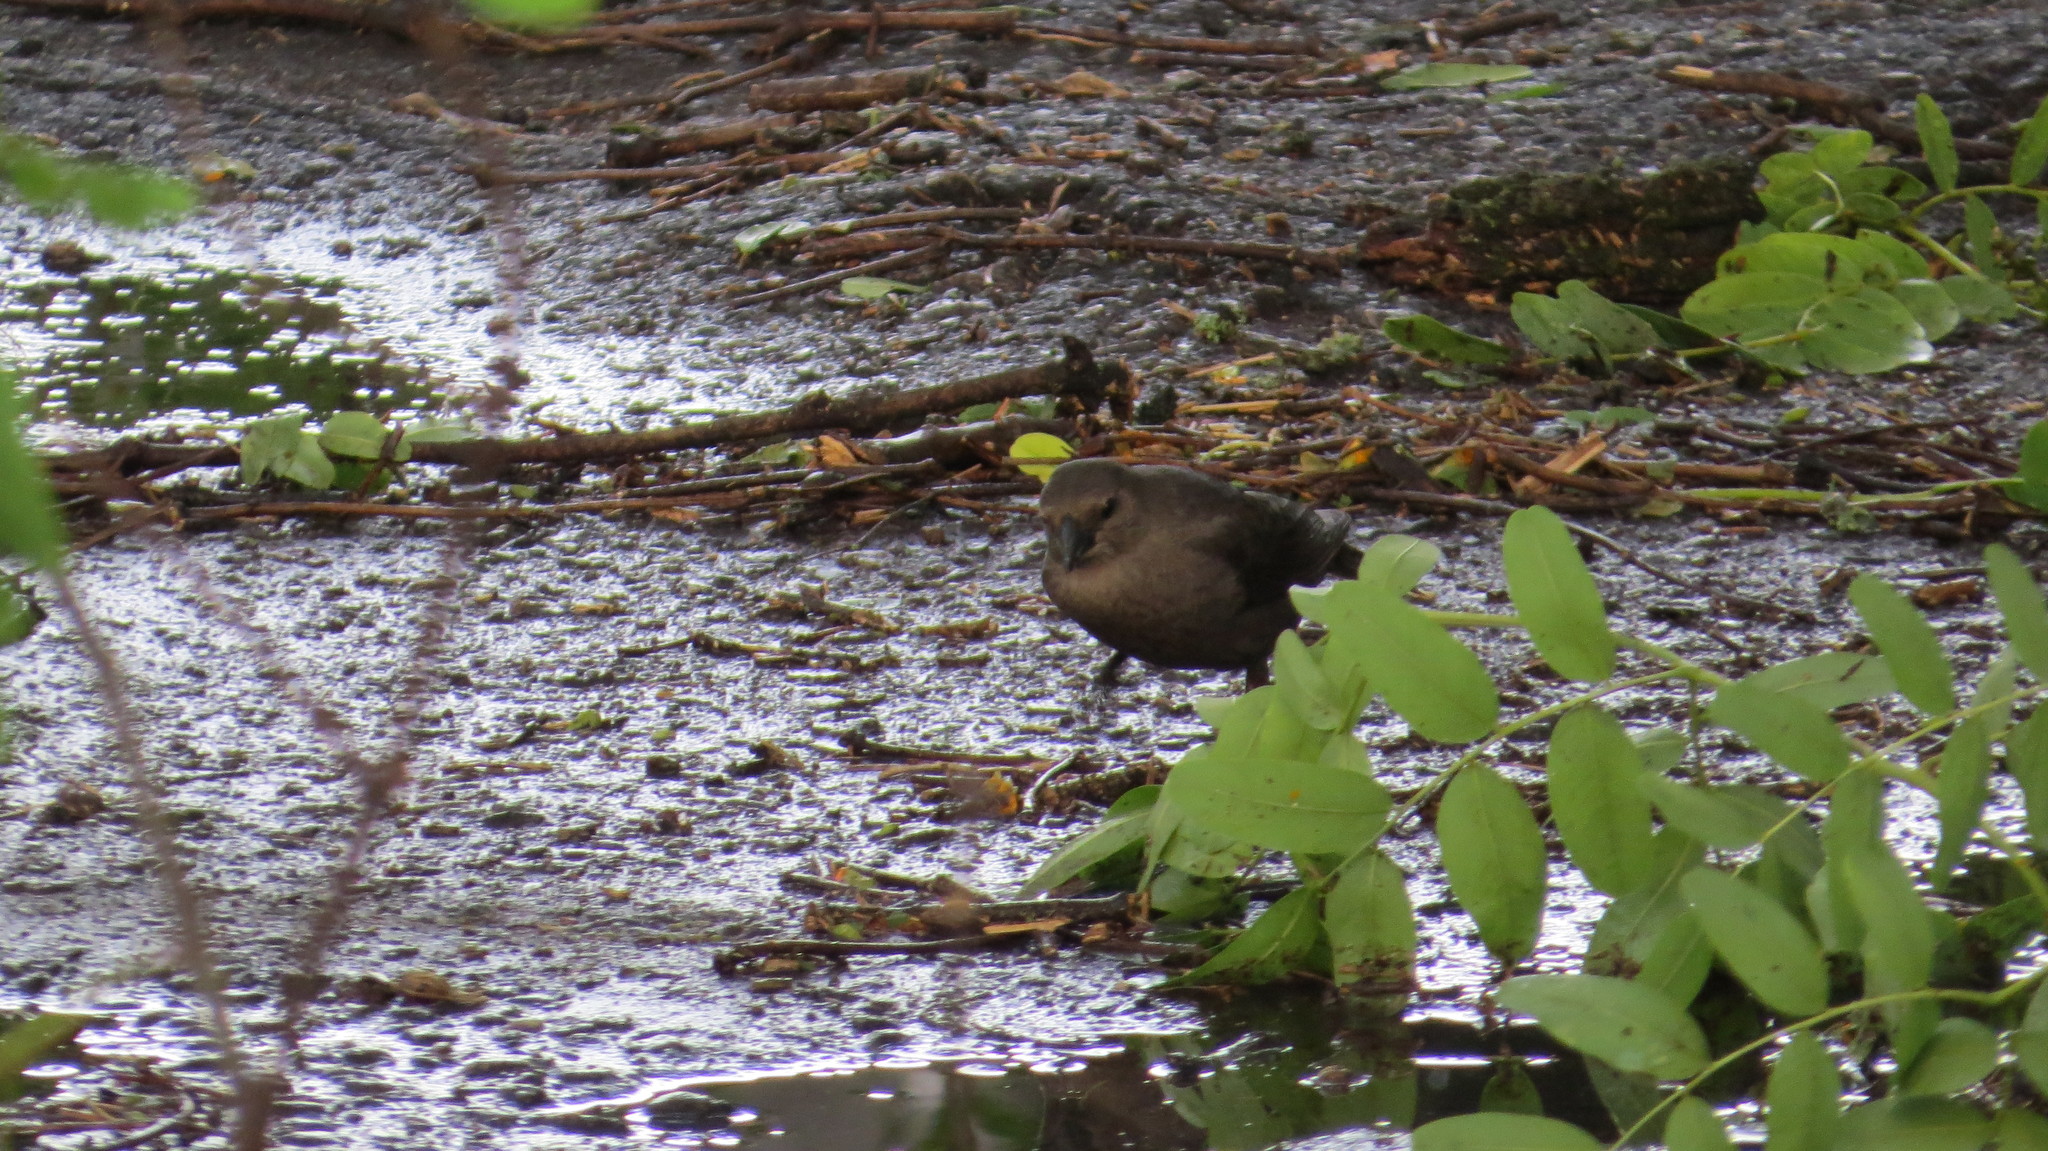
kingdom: Animalia
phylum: Chordata
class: Aves
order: Passeriformes
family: Icteridae
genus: Molothrus
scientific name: Molothrus bonariensis
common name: Shiny cowbird
